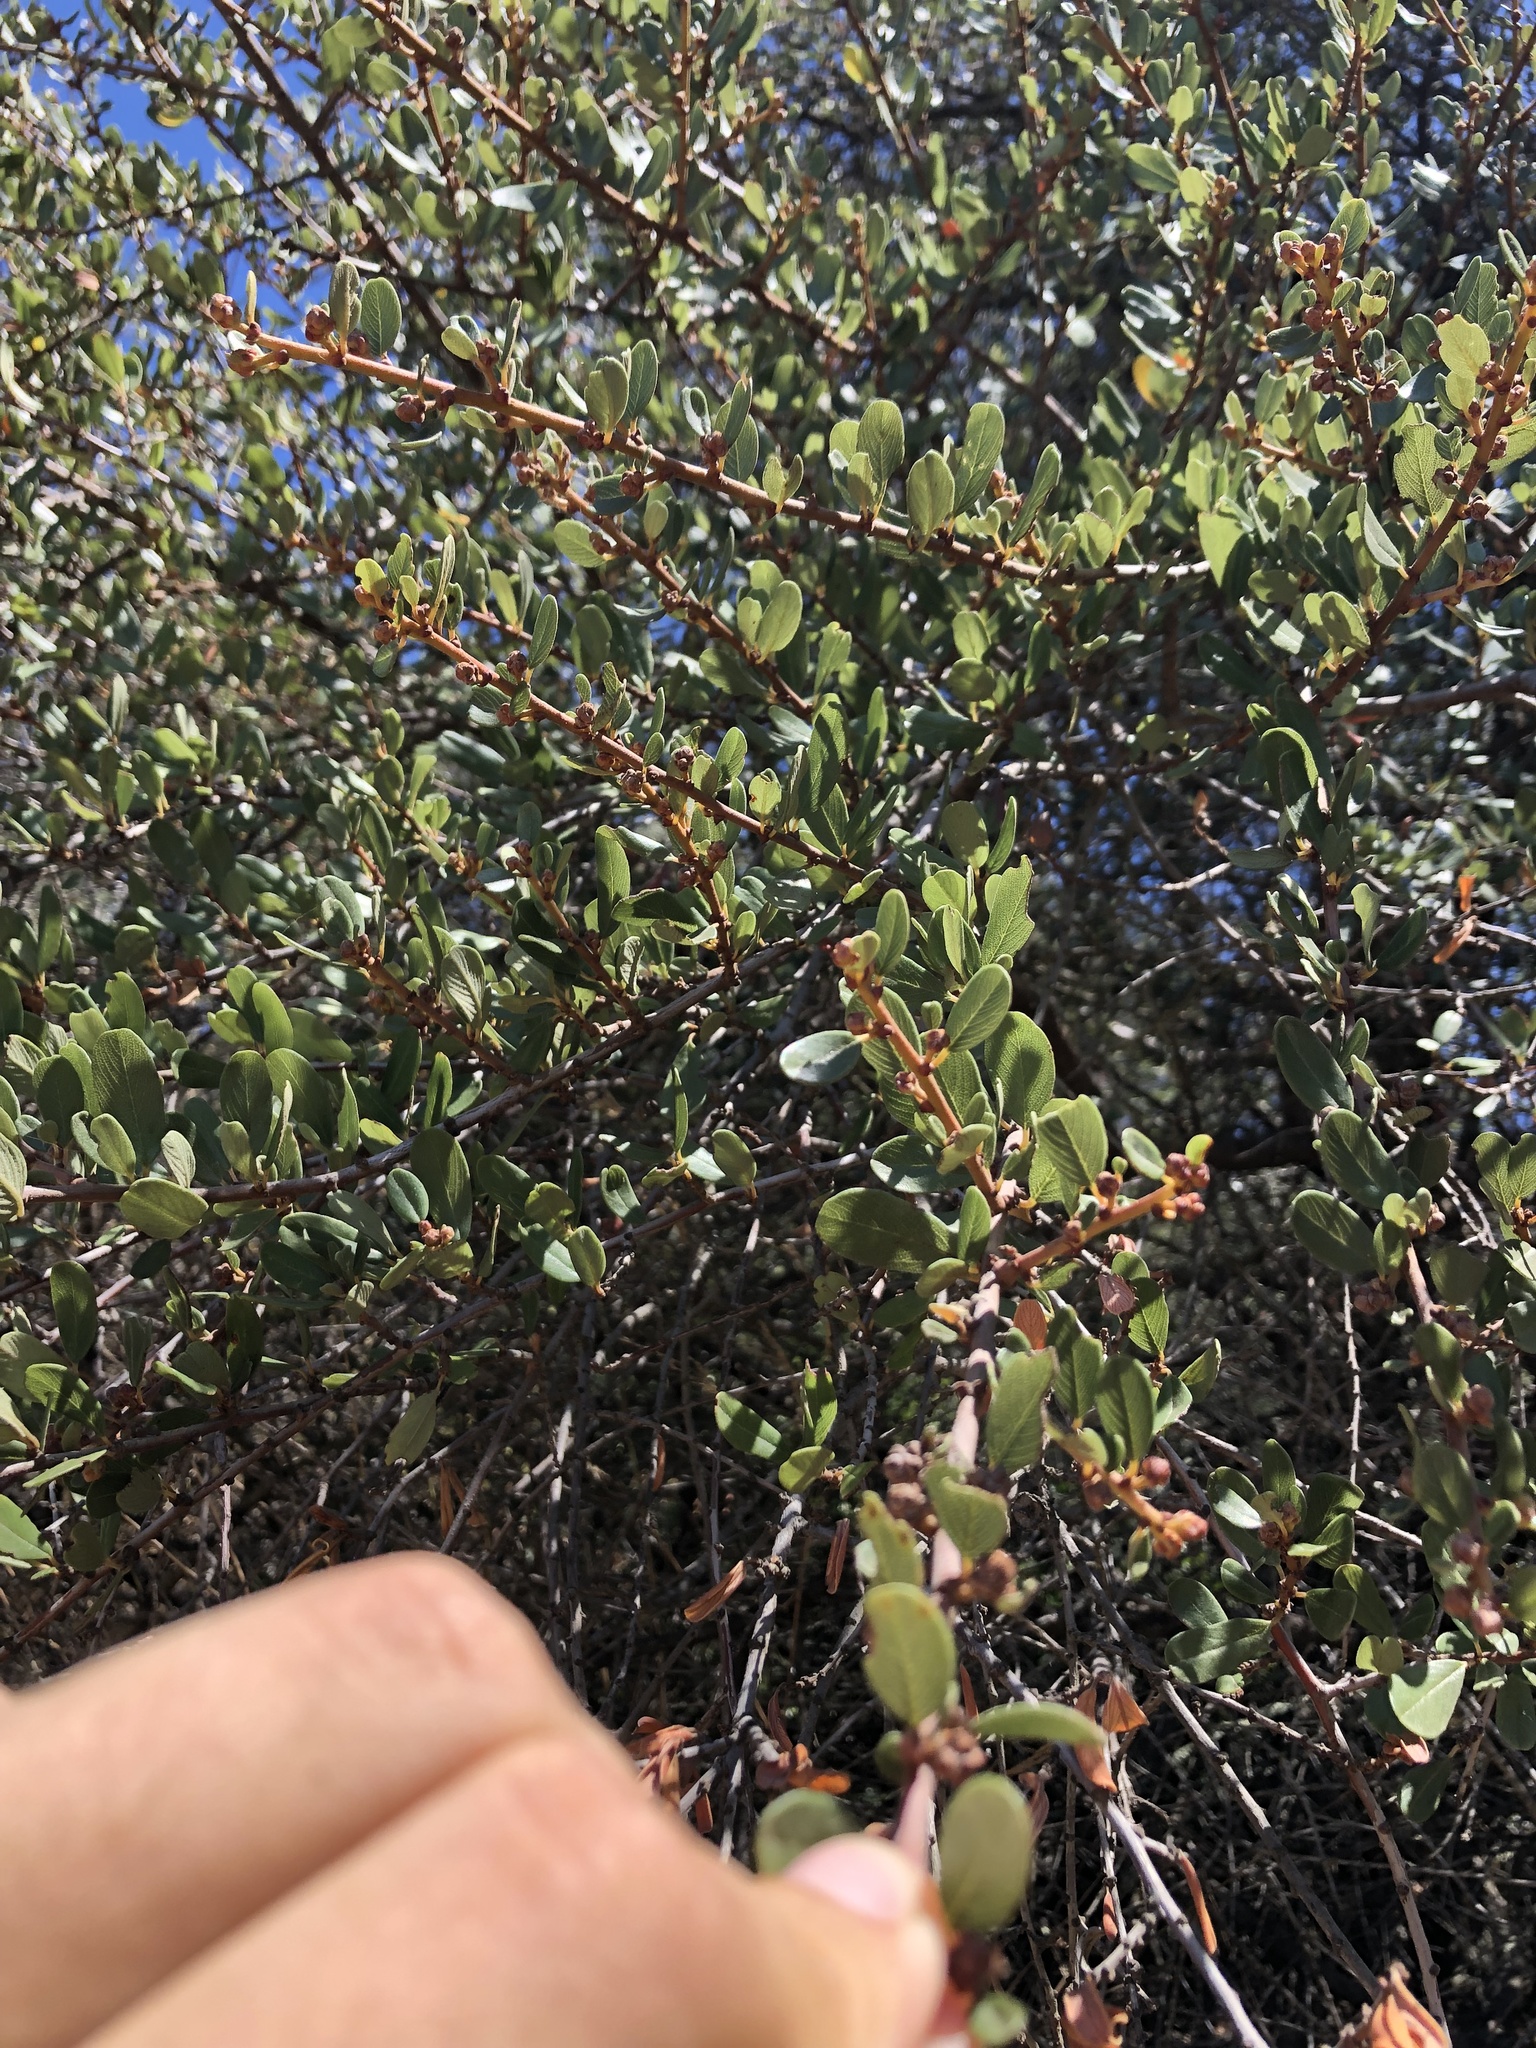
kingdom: Plantae
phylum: Tracheophyta
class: Magnoliopsida
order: Rosales
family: Rhamnaceae
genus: Ceanothus
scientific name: Ceanothus megacarpus
